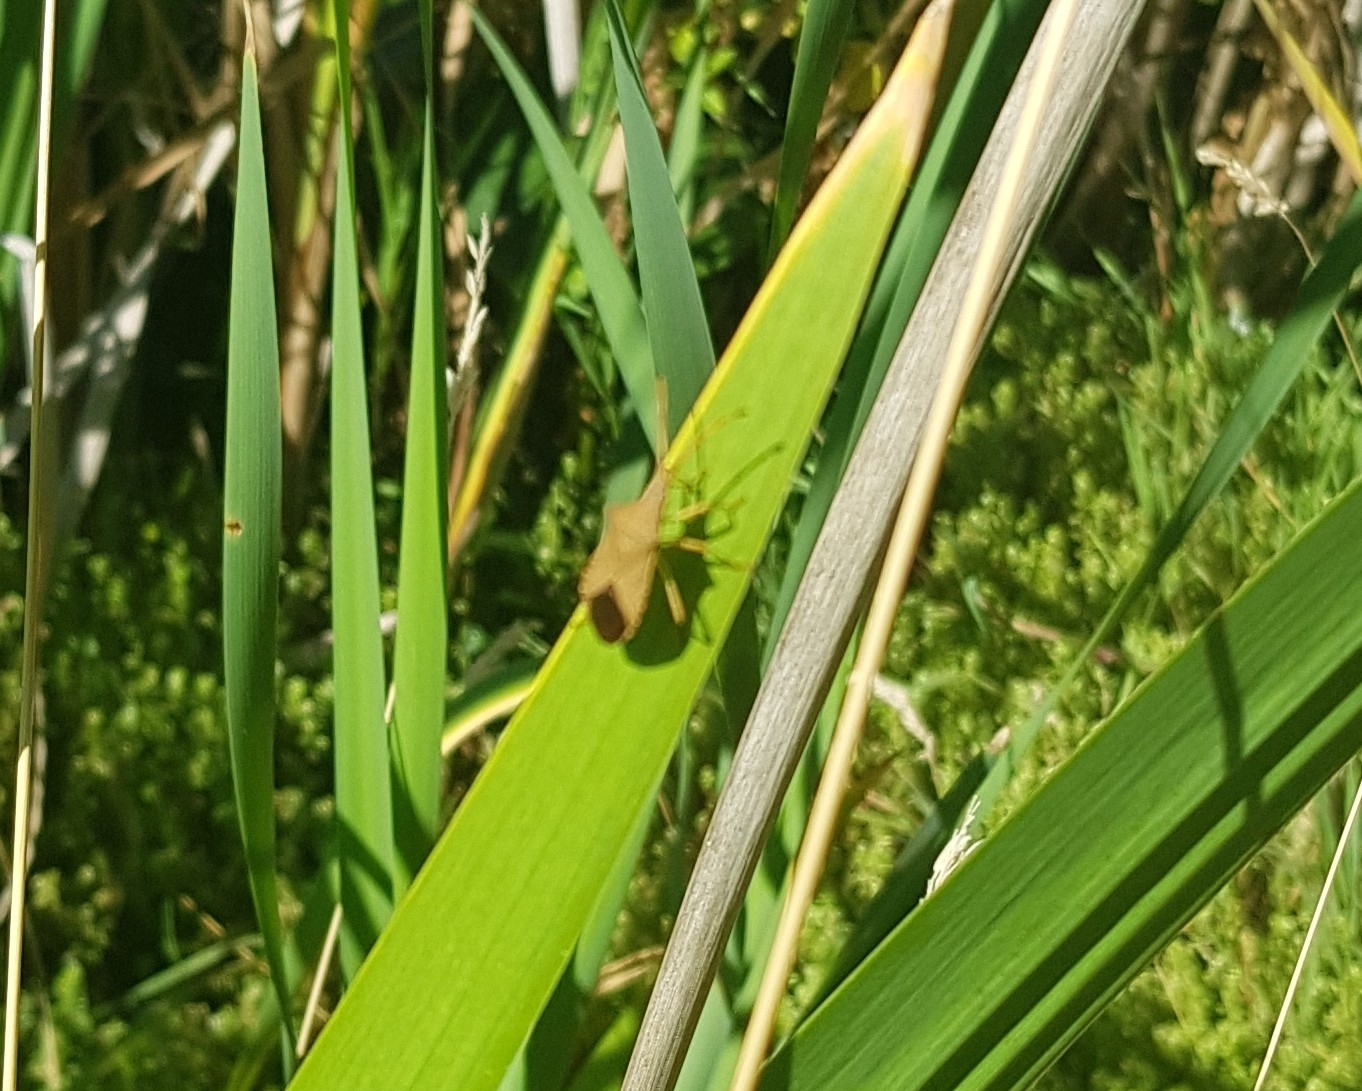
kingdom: Animalia
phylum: Arthropoda
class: Insecta
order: Hemiptera
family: Coreidae
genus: Gonocerus
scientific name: Gonocerus acuteangulatus
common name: Box bug
